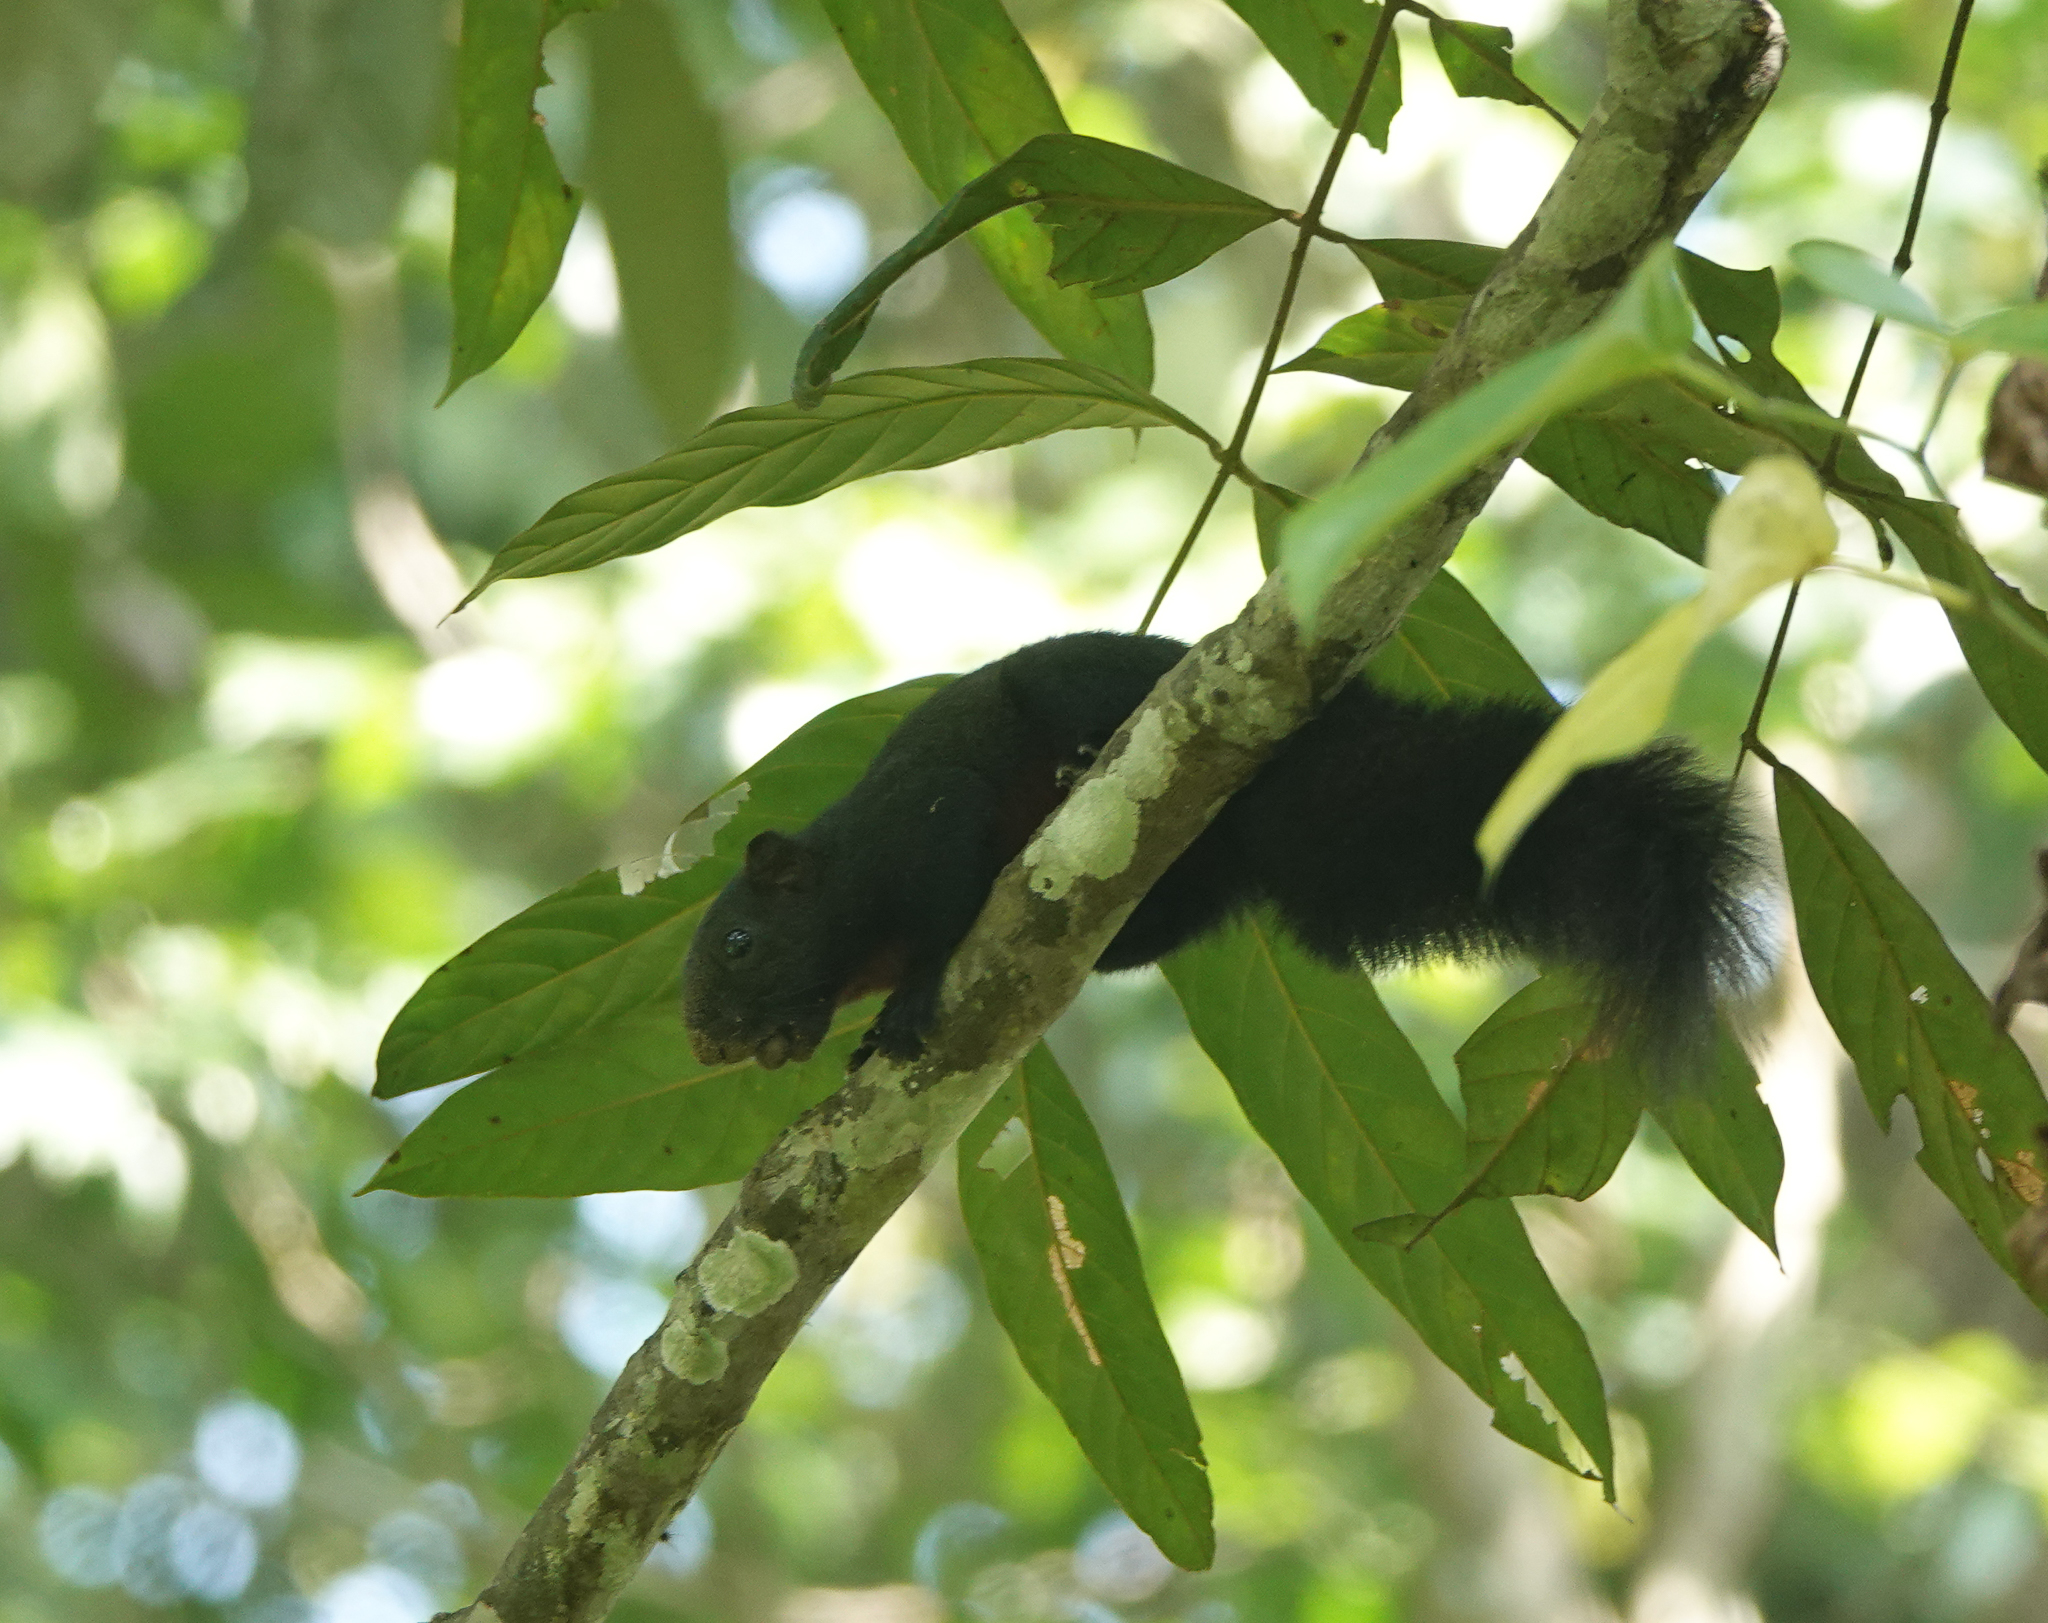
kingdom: Animalia
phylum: Chordata
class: Mammalia
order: Rodentia
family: Sciuridae
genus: Callosciurus
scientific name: Callosciurus erythraeus
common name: Pallas's squirrel
